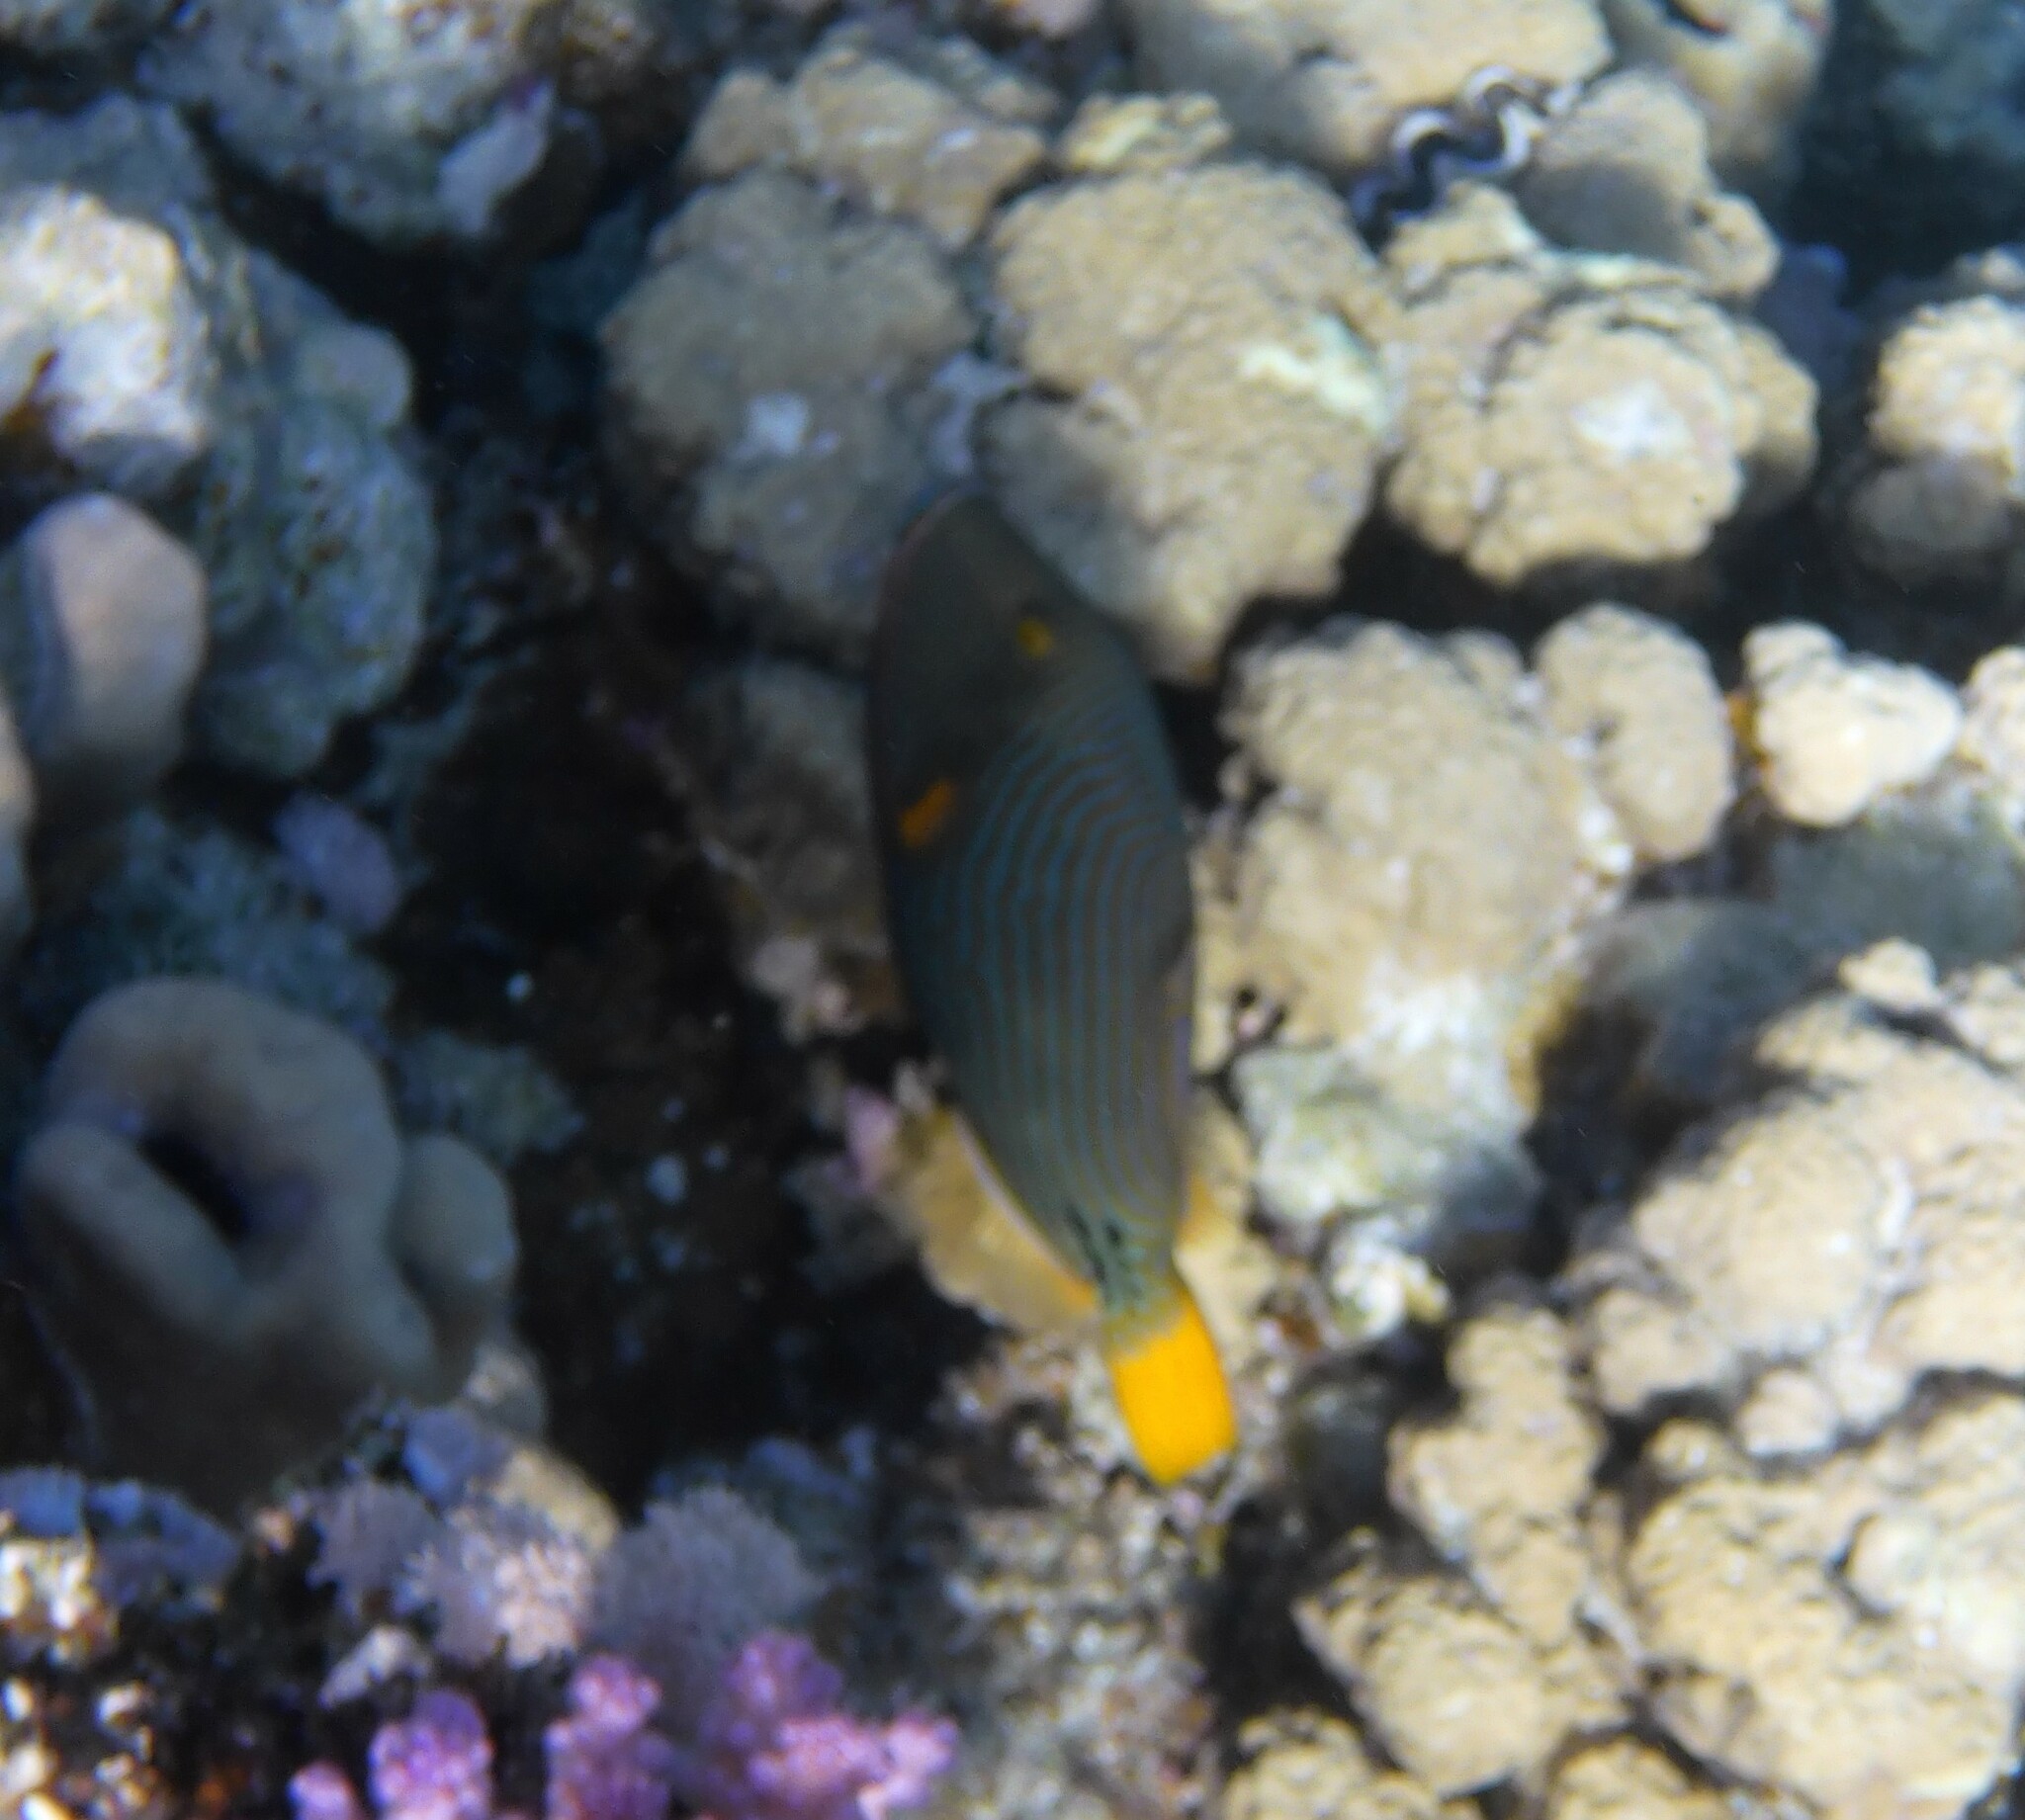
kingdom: Animalia
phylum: Chordata
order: Tetraodontiformes
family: Balistidae
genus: Balistapus
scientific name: Balistapus undulatus
